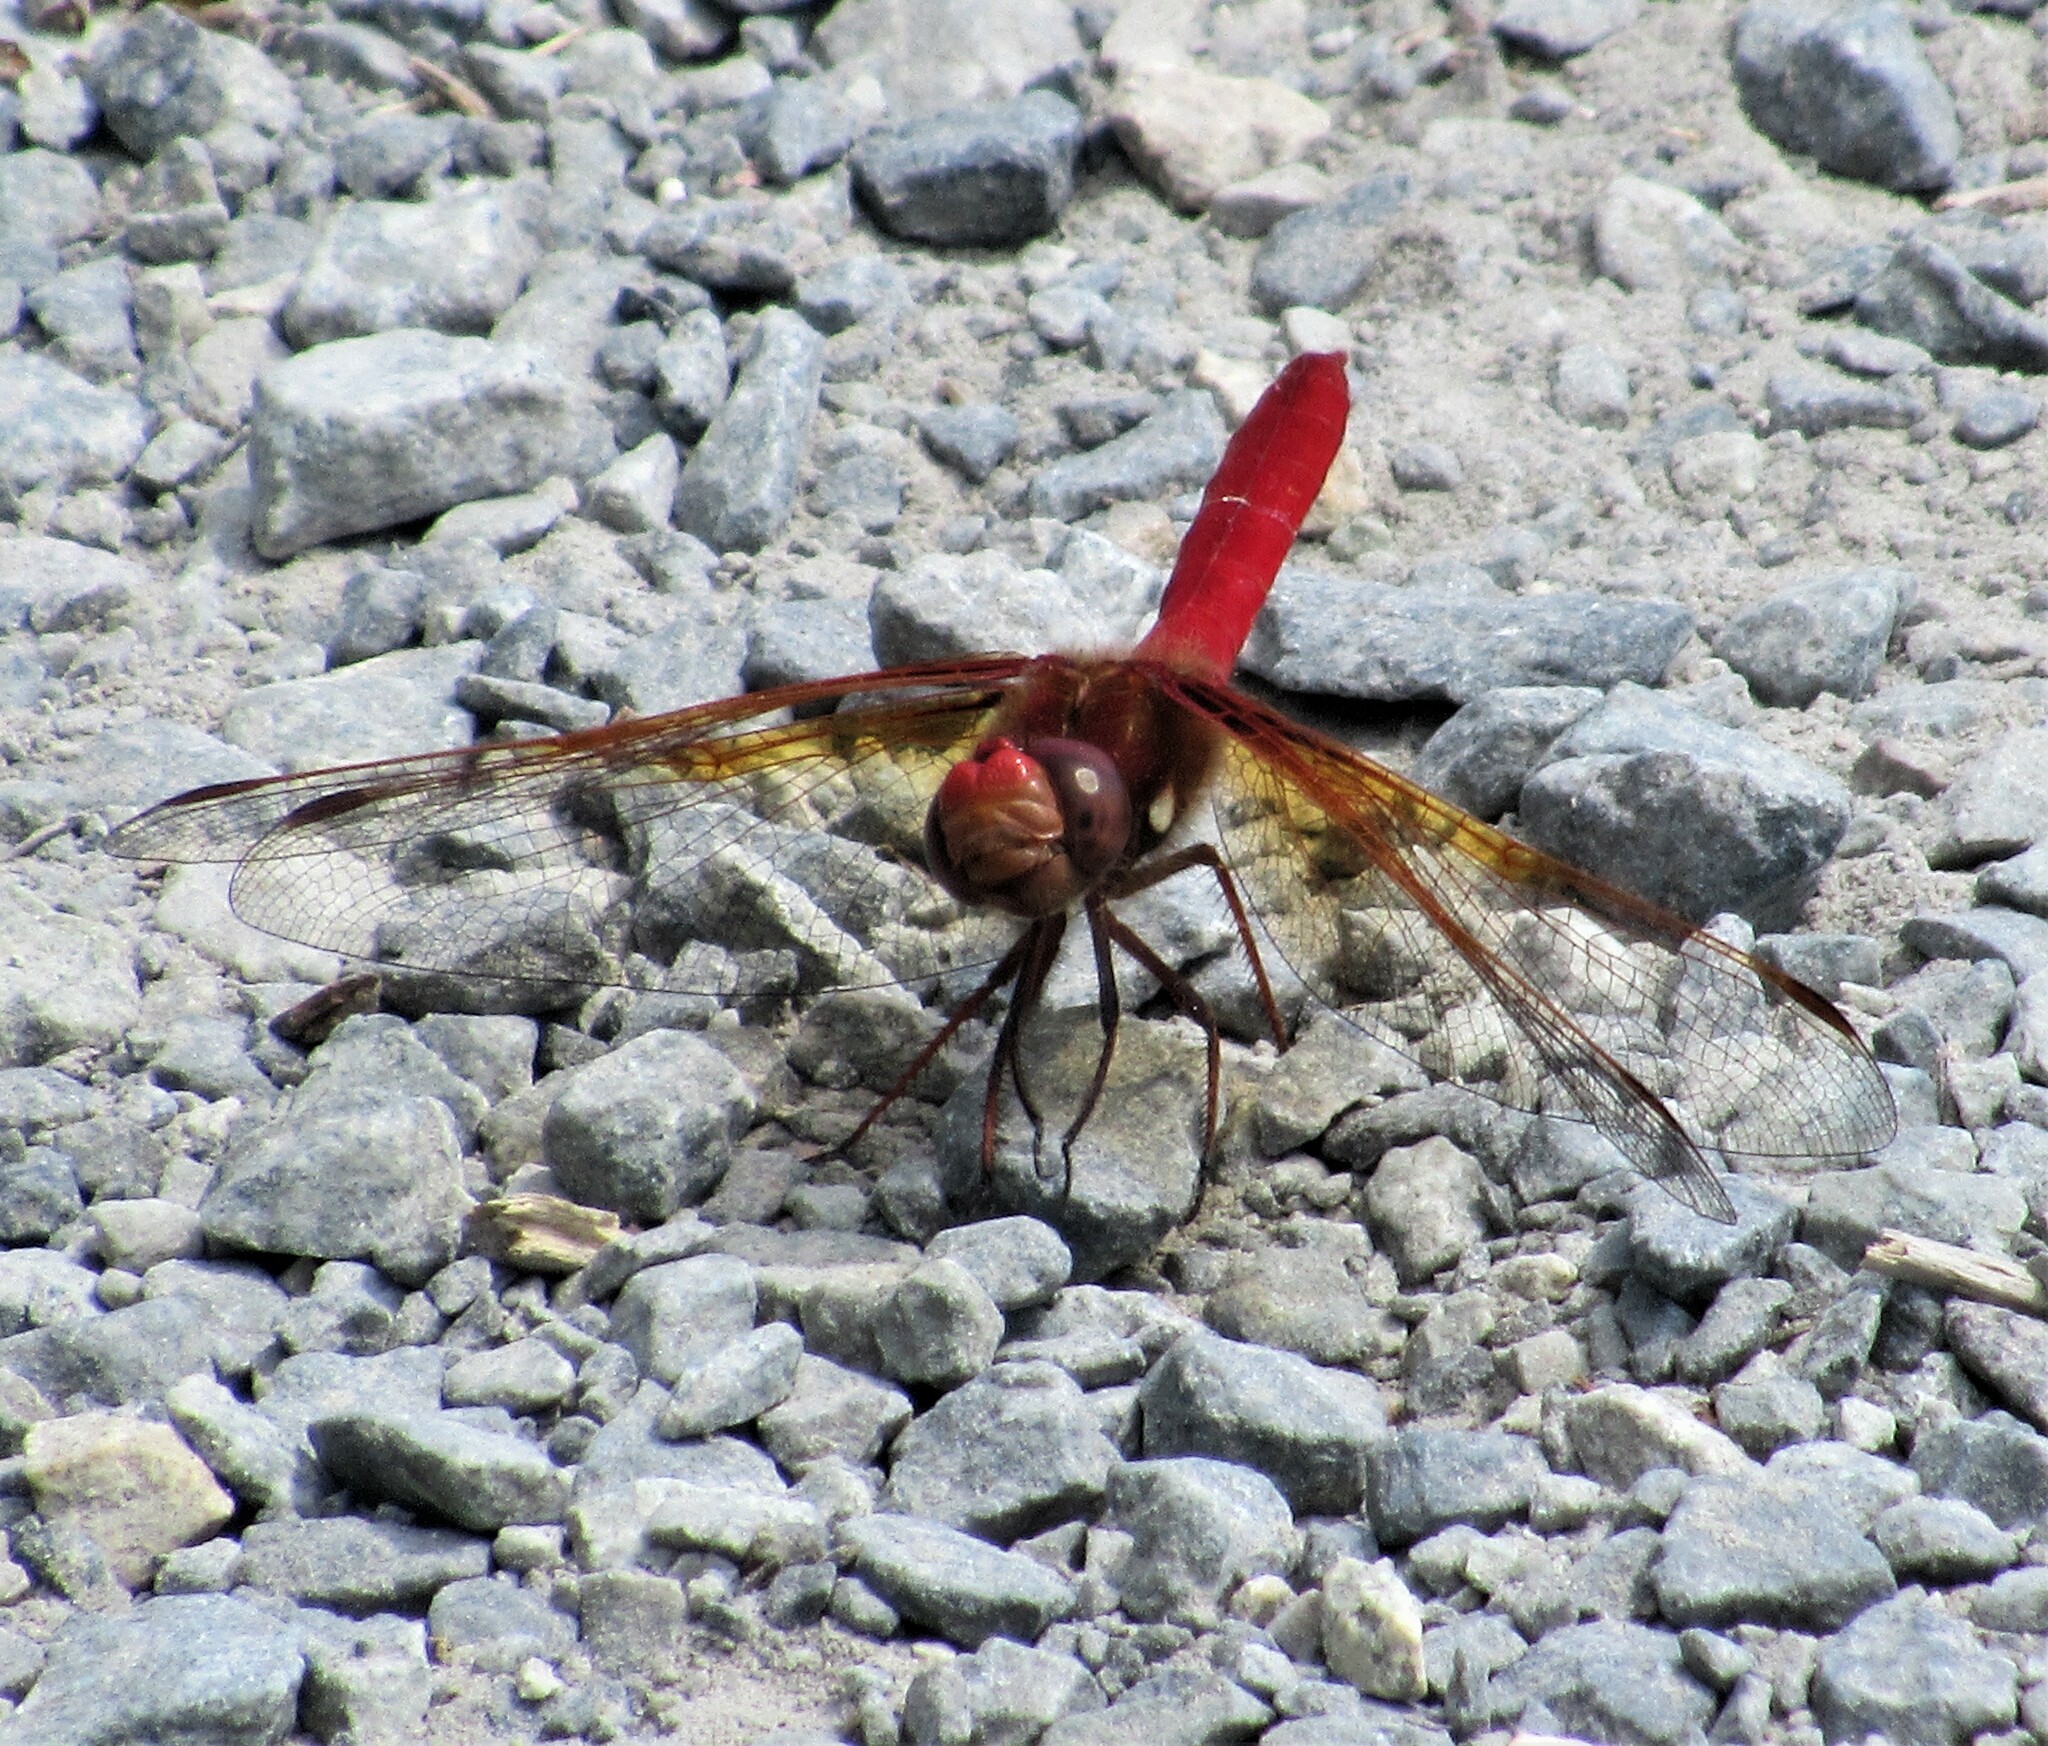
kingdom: Animalia
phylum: Arthropoda
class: Insecta
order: Odonata
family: Libellulidae
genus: Sympetrum
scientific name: Sympetrum illotum
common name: Cardinal meadowhawk
